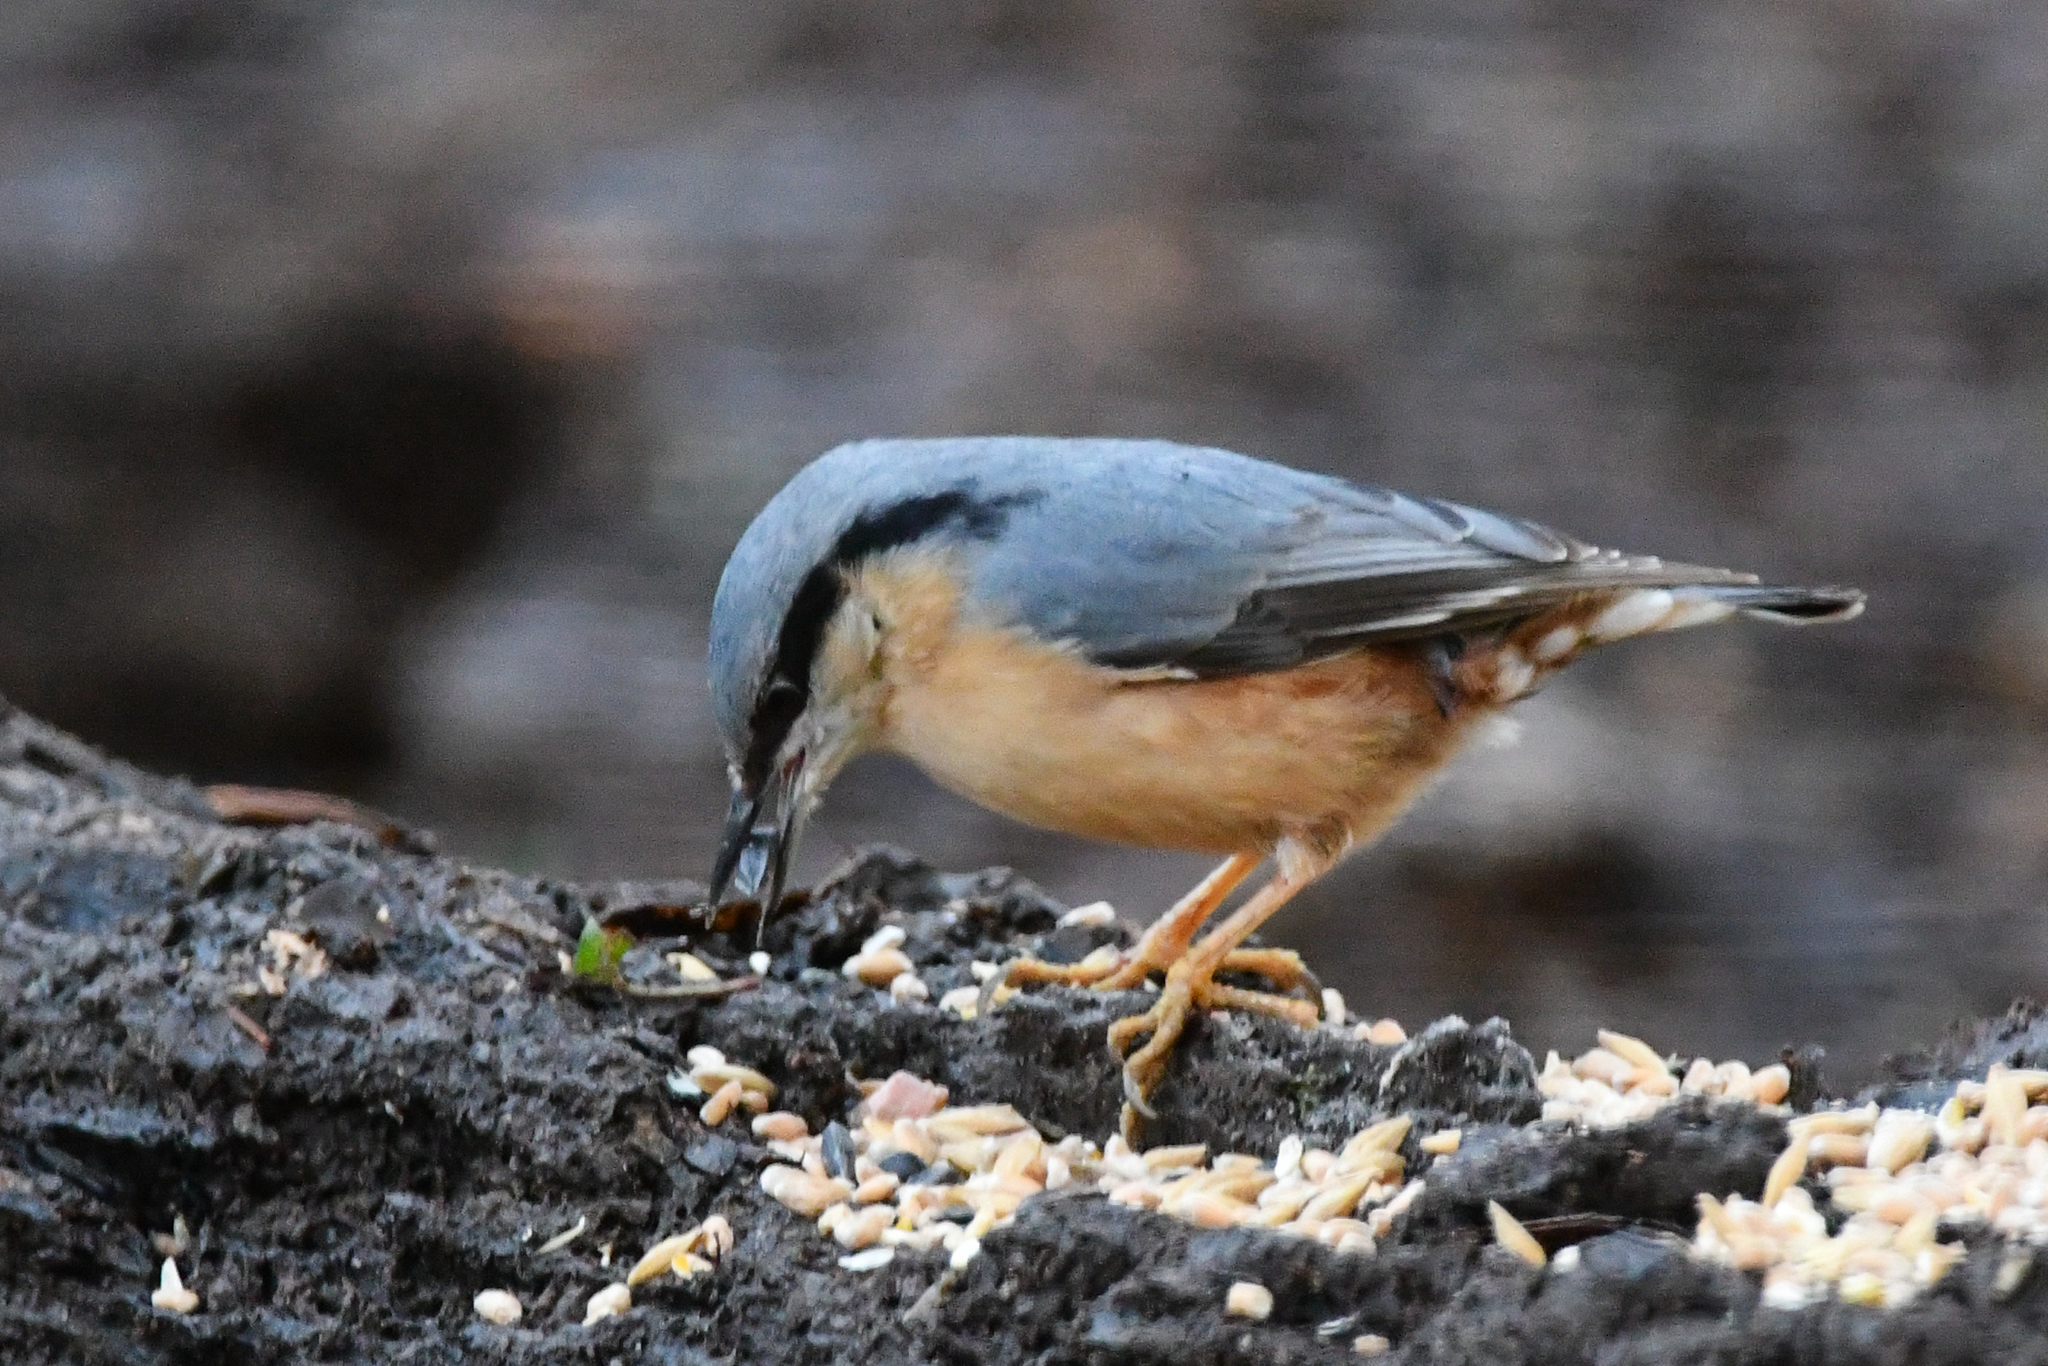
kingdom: Animalia
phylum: Chordata
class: Aves
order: Passeriformes
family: Sittidae
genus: Sitta
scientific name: Sitta europaea
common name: Eurasian nuthatch
